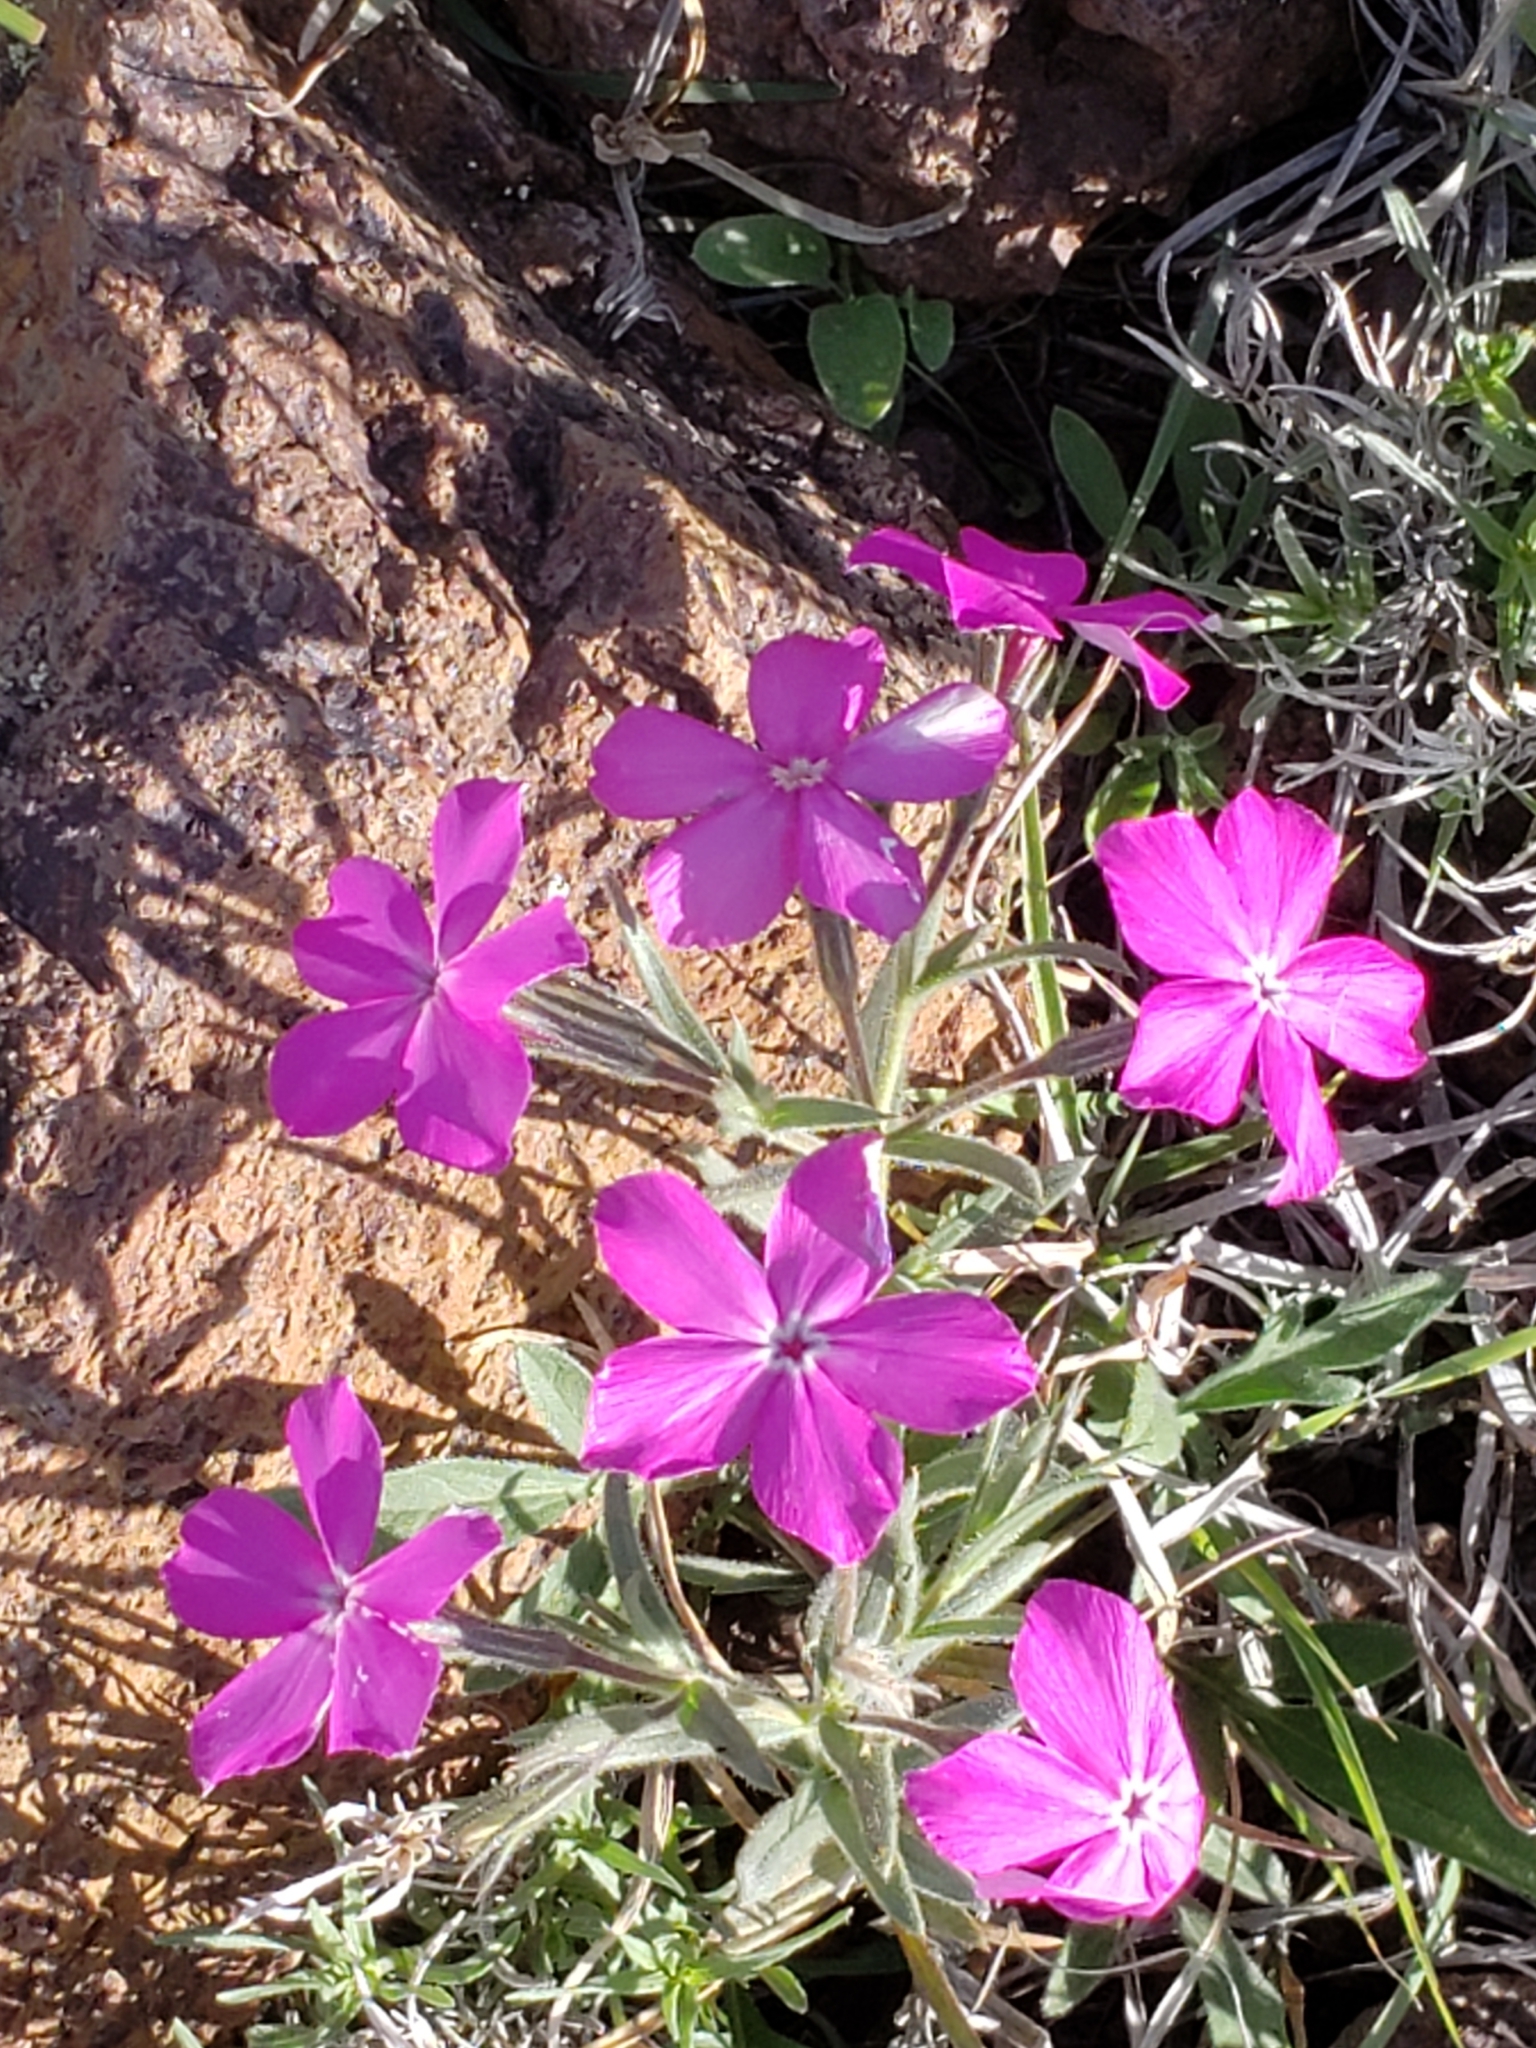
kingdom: Plantae
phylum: Tracheophyta
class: Magnoliopsida
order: Ericales
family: Polemoniaceae
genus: Phlox
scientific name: Phlox nana
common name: Santa fe phlox
